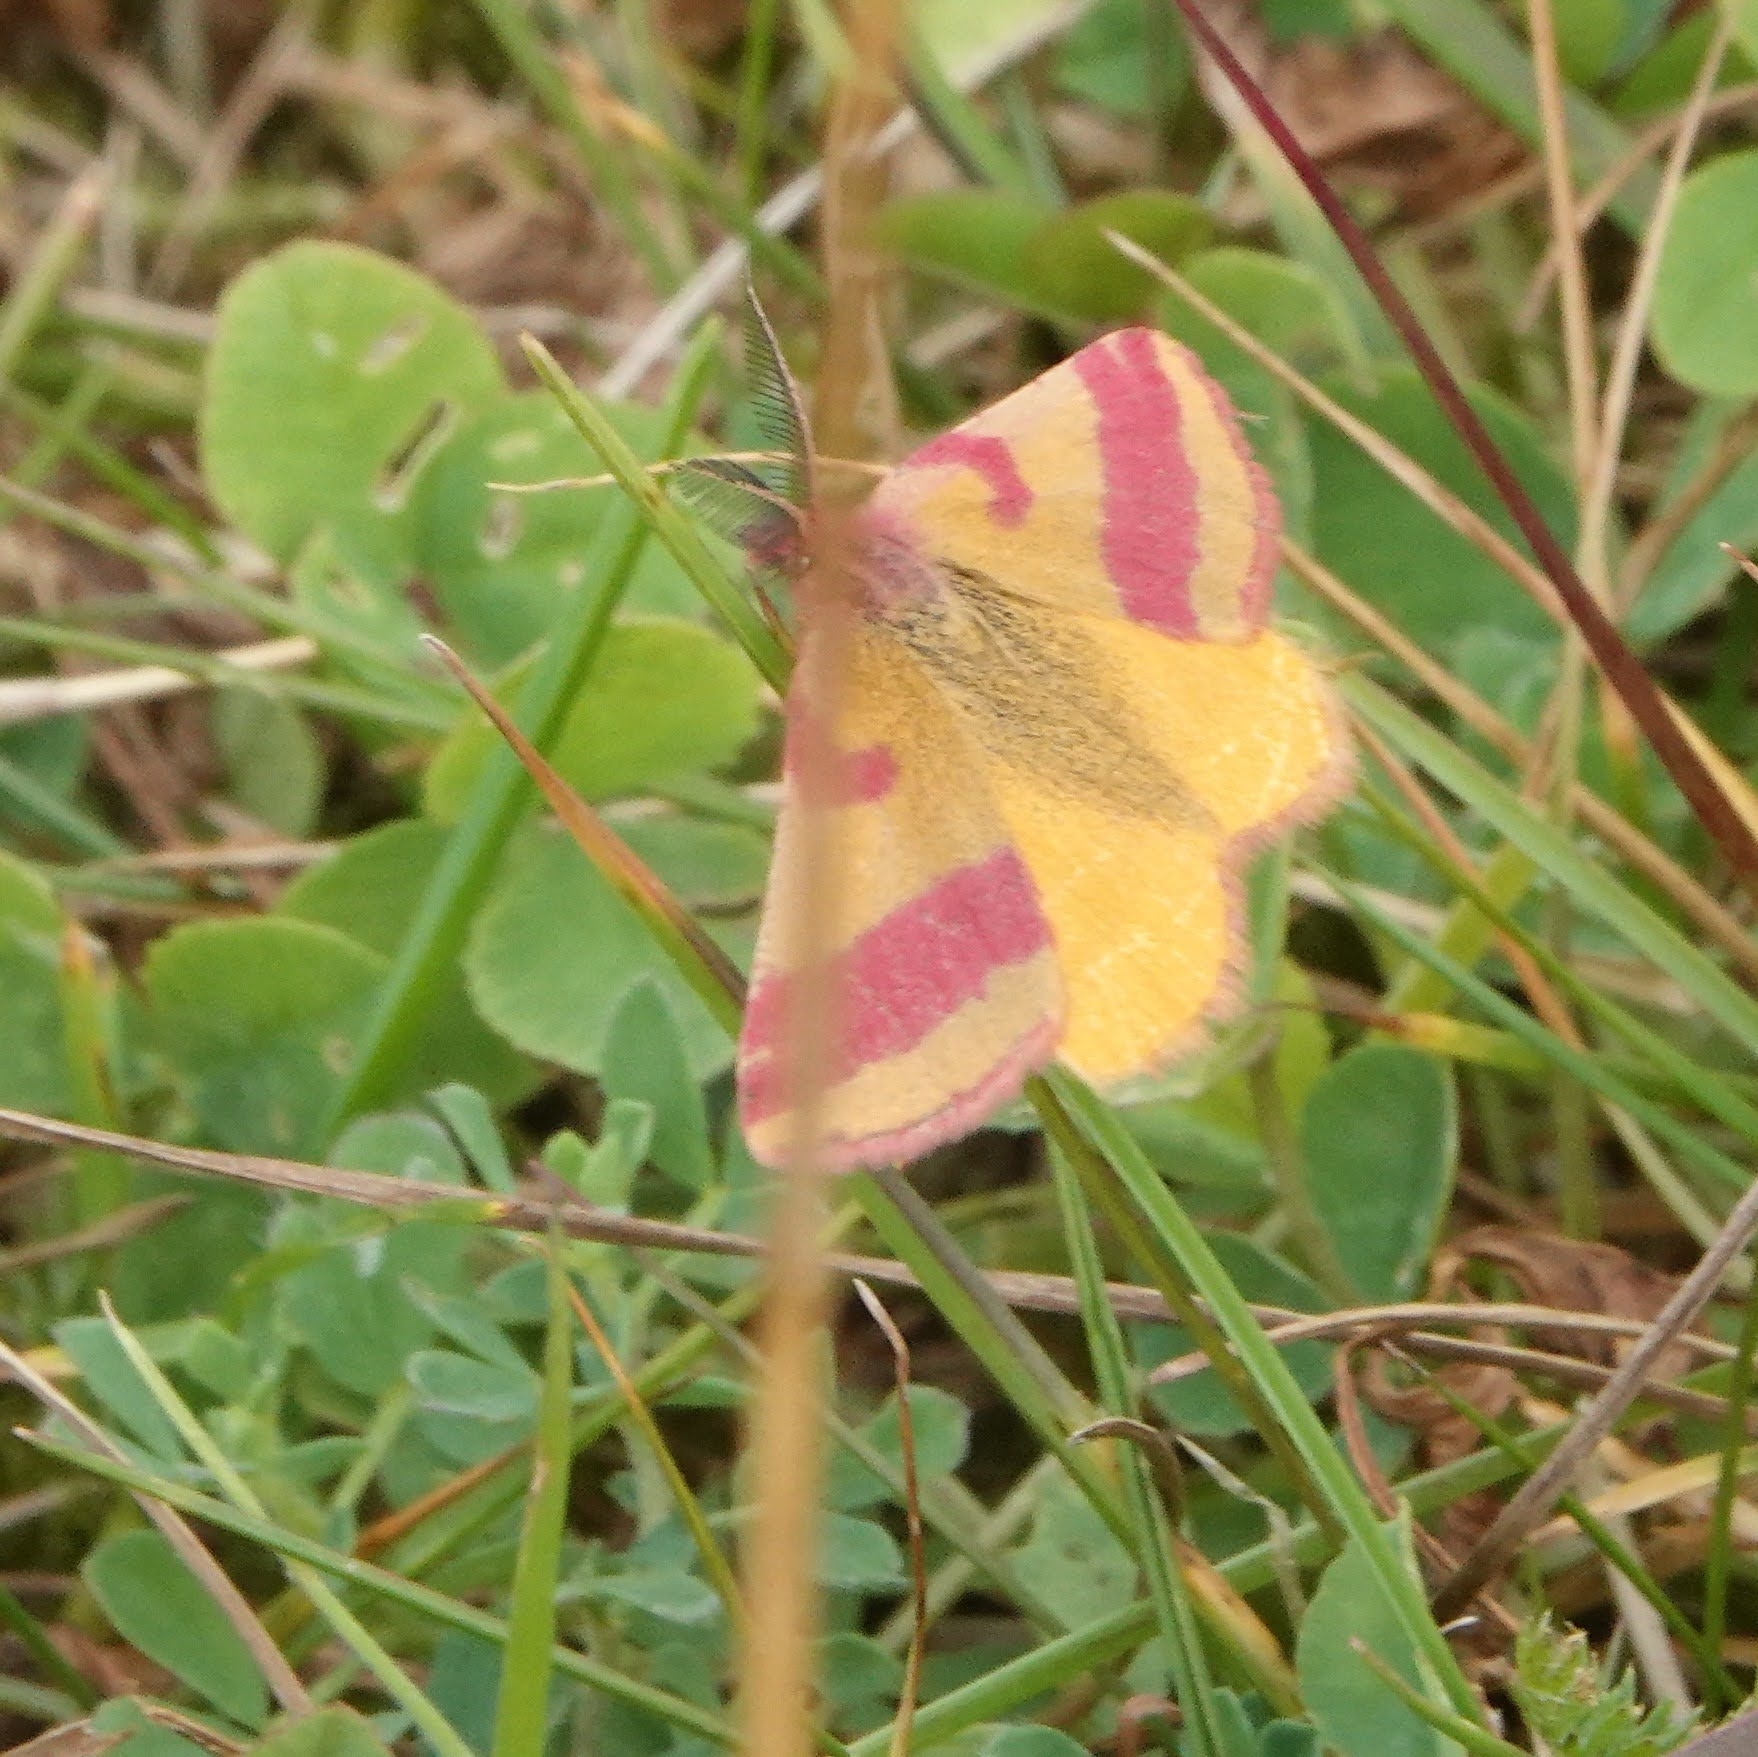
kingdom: Animalia
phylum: Arthropoda
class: Insecta
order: Lepidoptera
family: Geometridae
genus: Lythria
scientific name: Lythria cruentaria
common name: Purple-barred yellow
